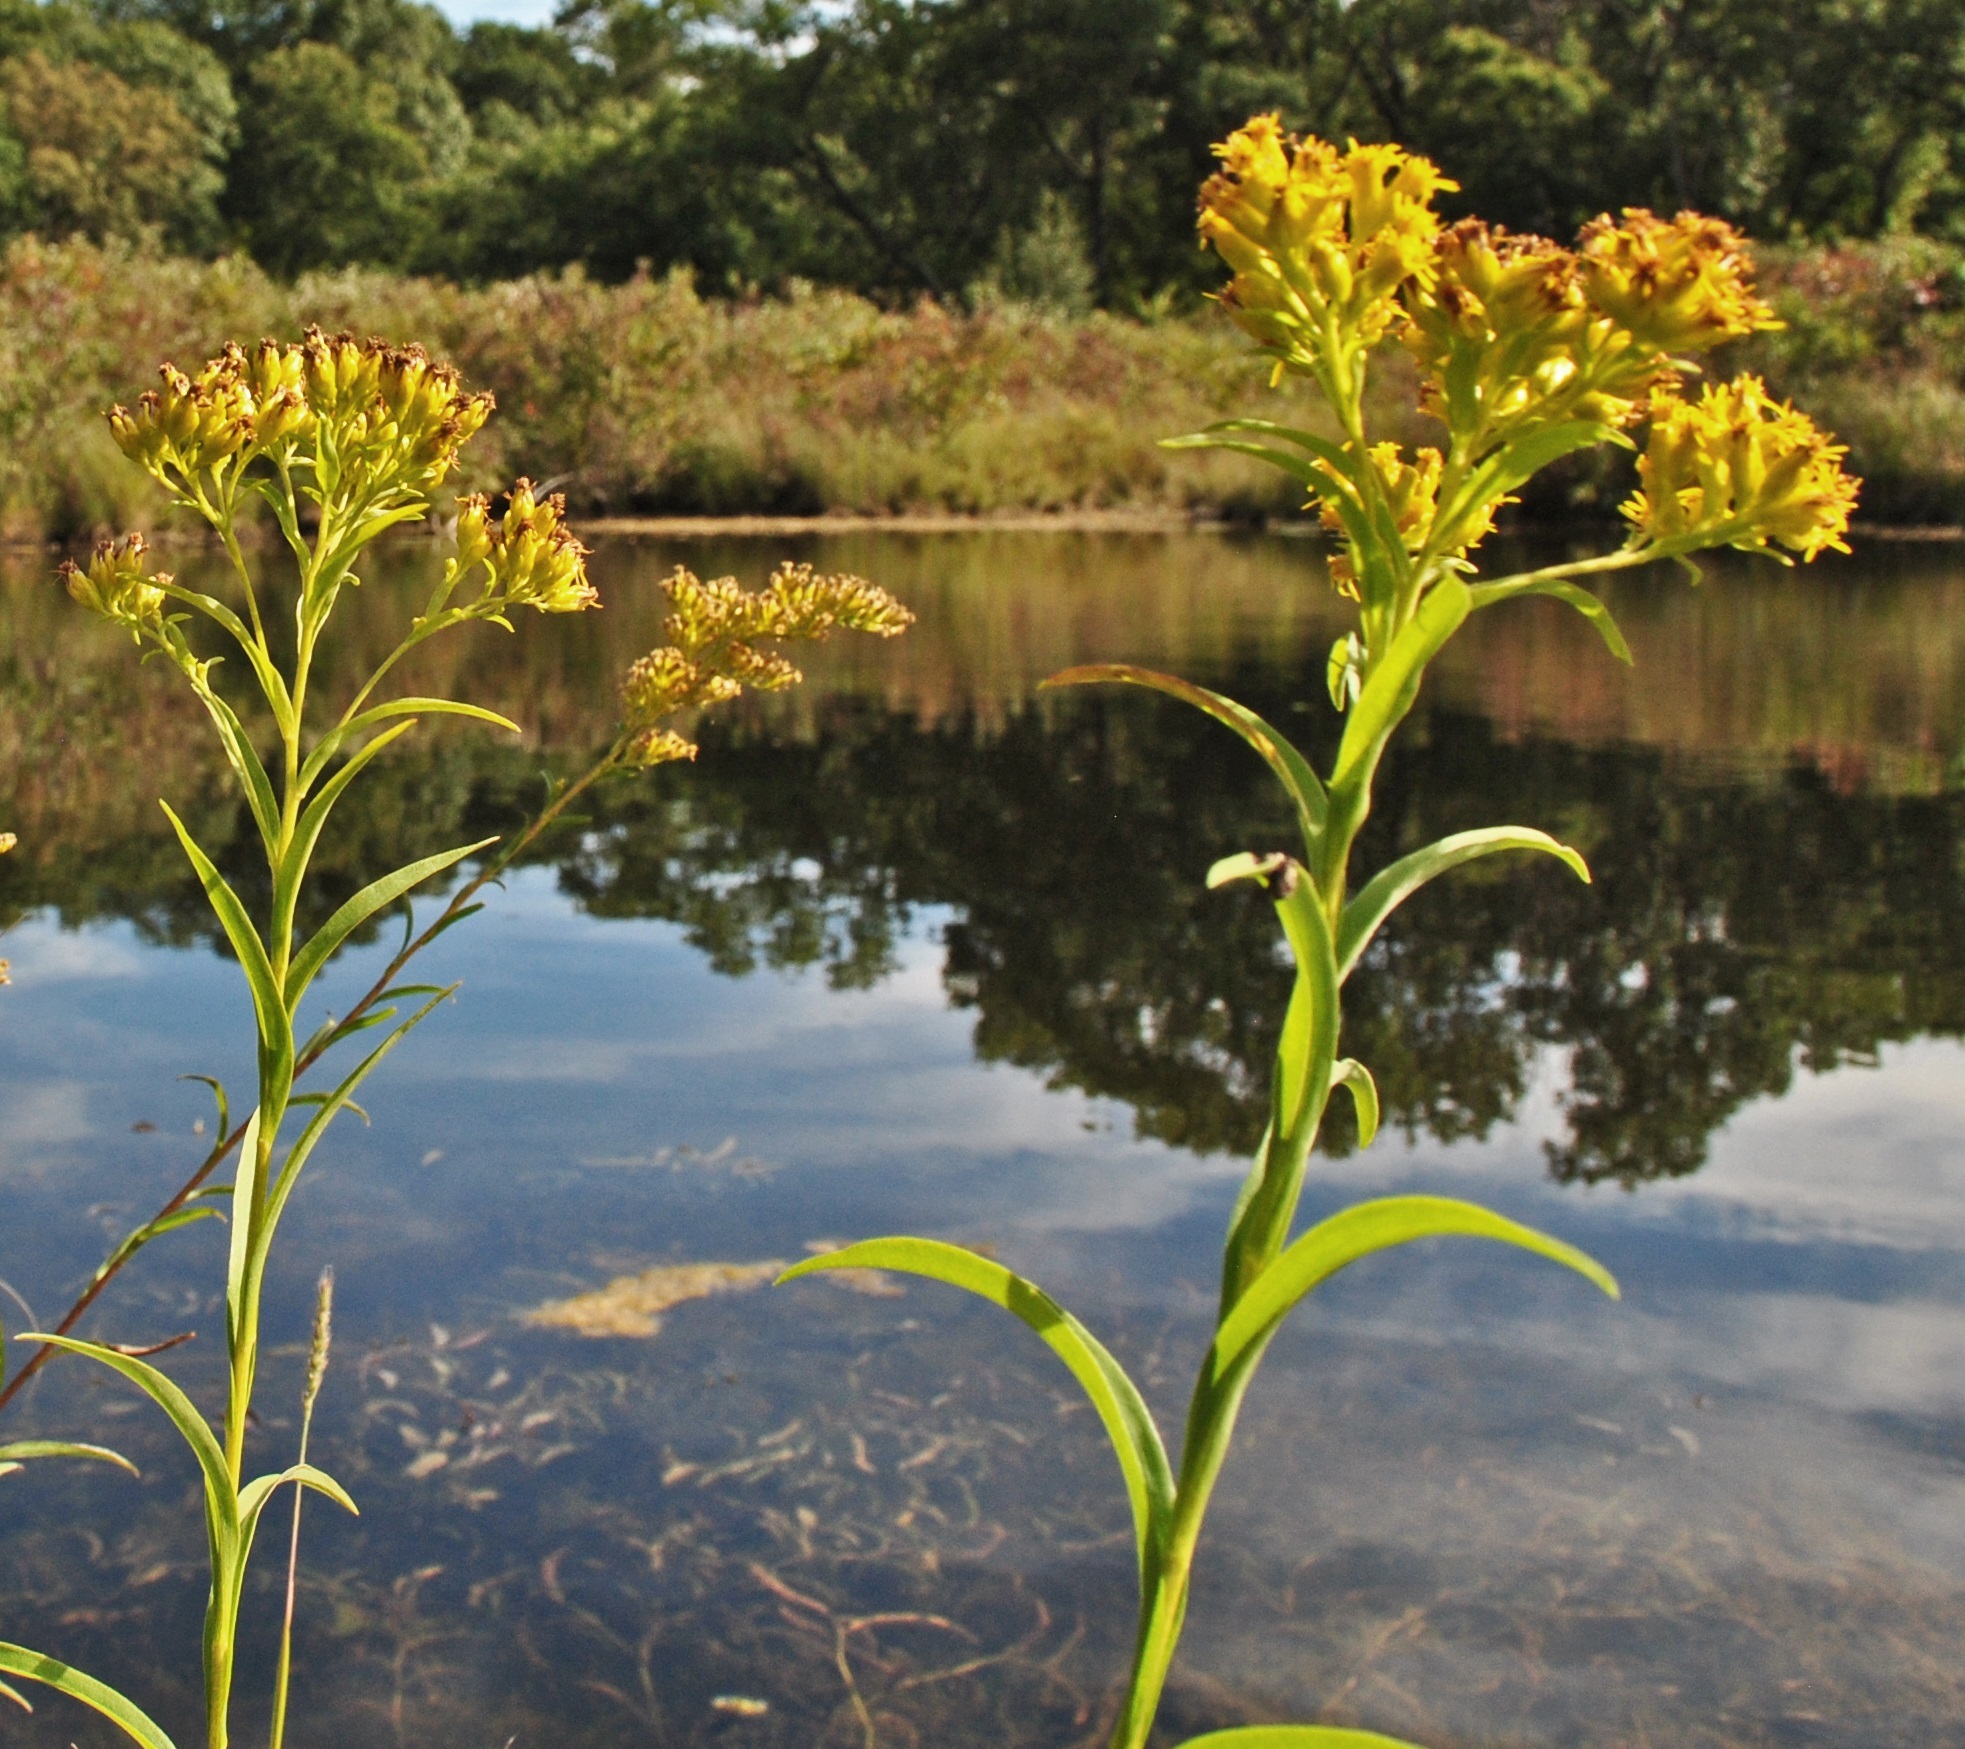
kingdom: Plantae
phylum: Tracheophyta
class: Magnoliopsida
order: Asterales
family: Asteraceae
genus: Solidago
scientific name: Solidago riddellii
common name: Riddell's goldenrod
